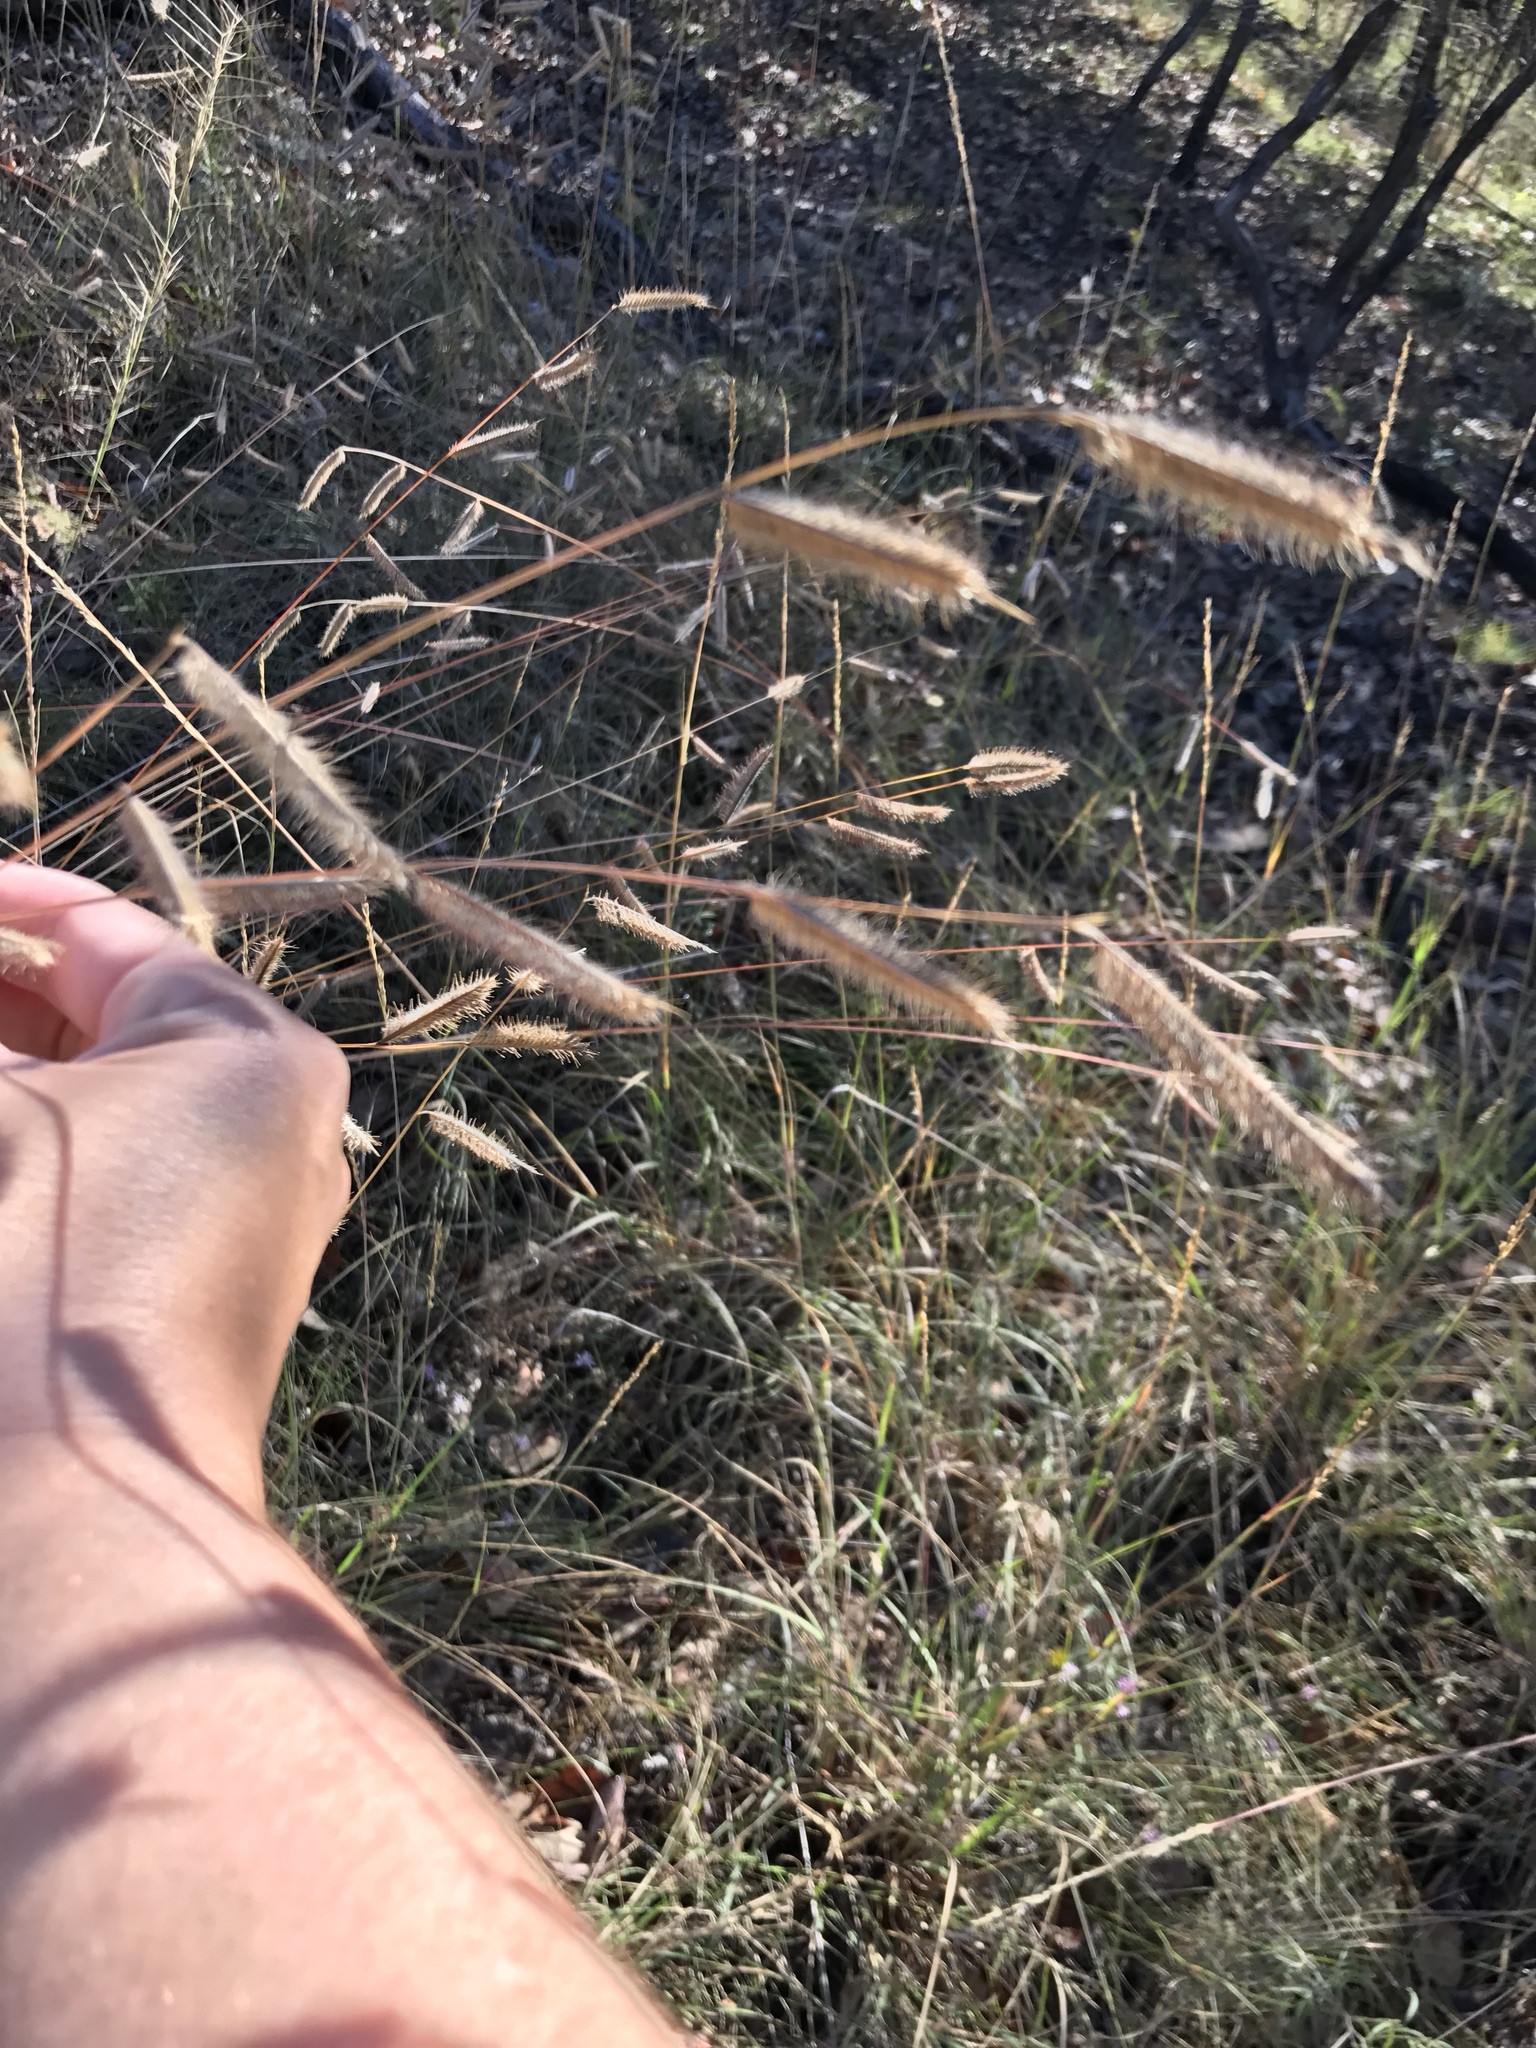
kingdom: Plantae
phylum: Tracheophyta
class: Liliopsida
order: Poales
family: Poaceae
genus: Bouteloua
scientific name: Bouteloua pectinata
